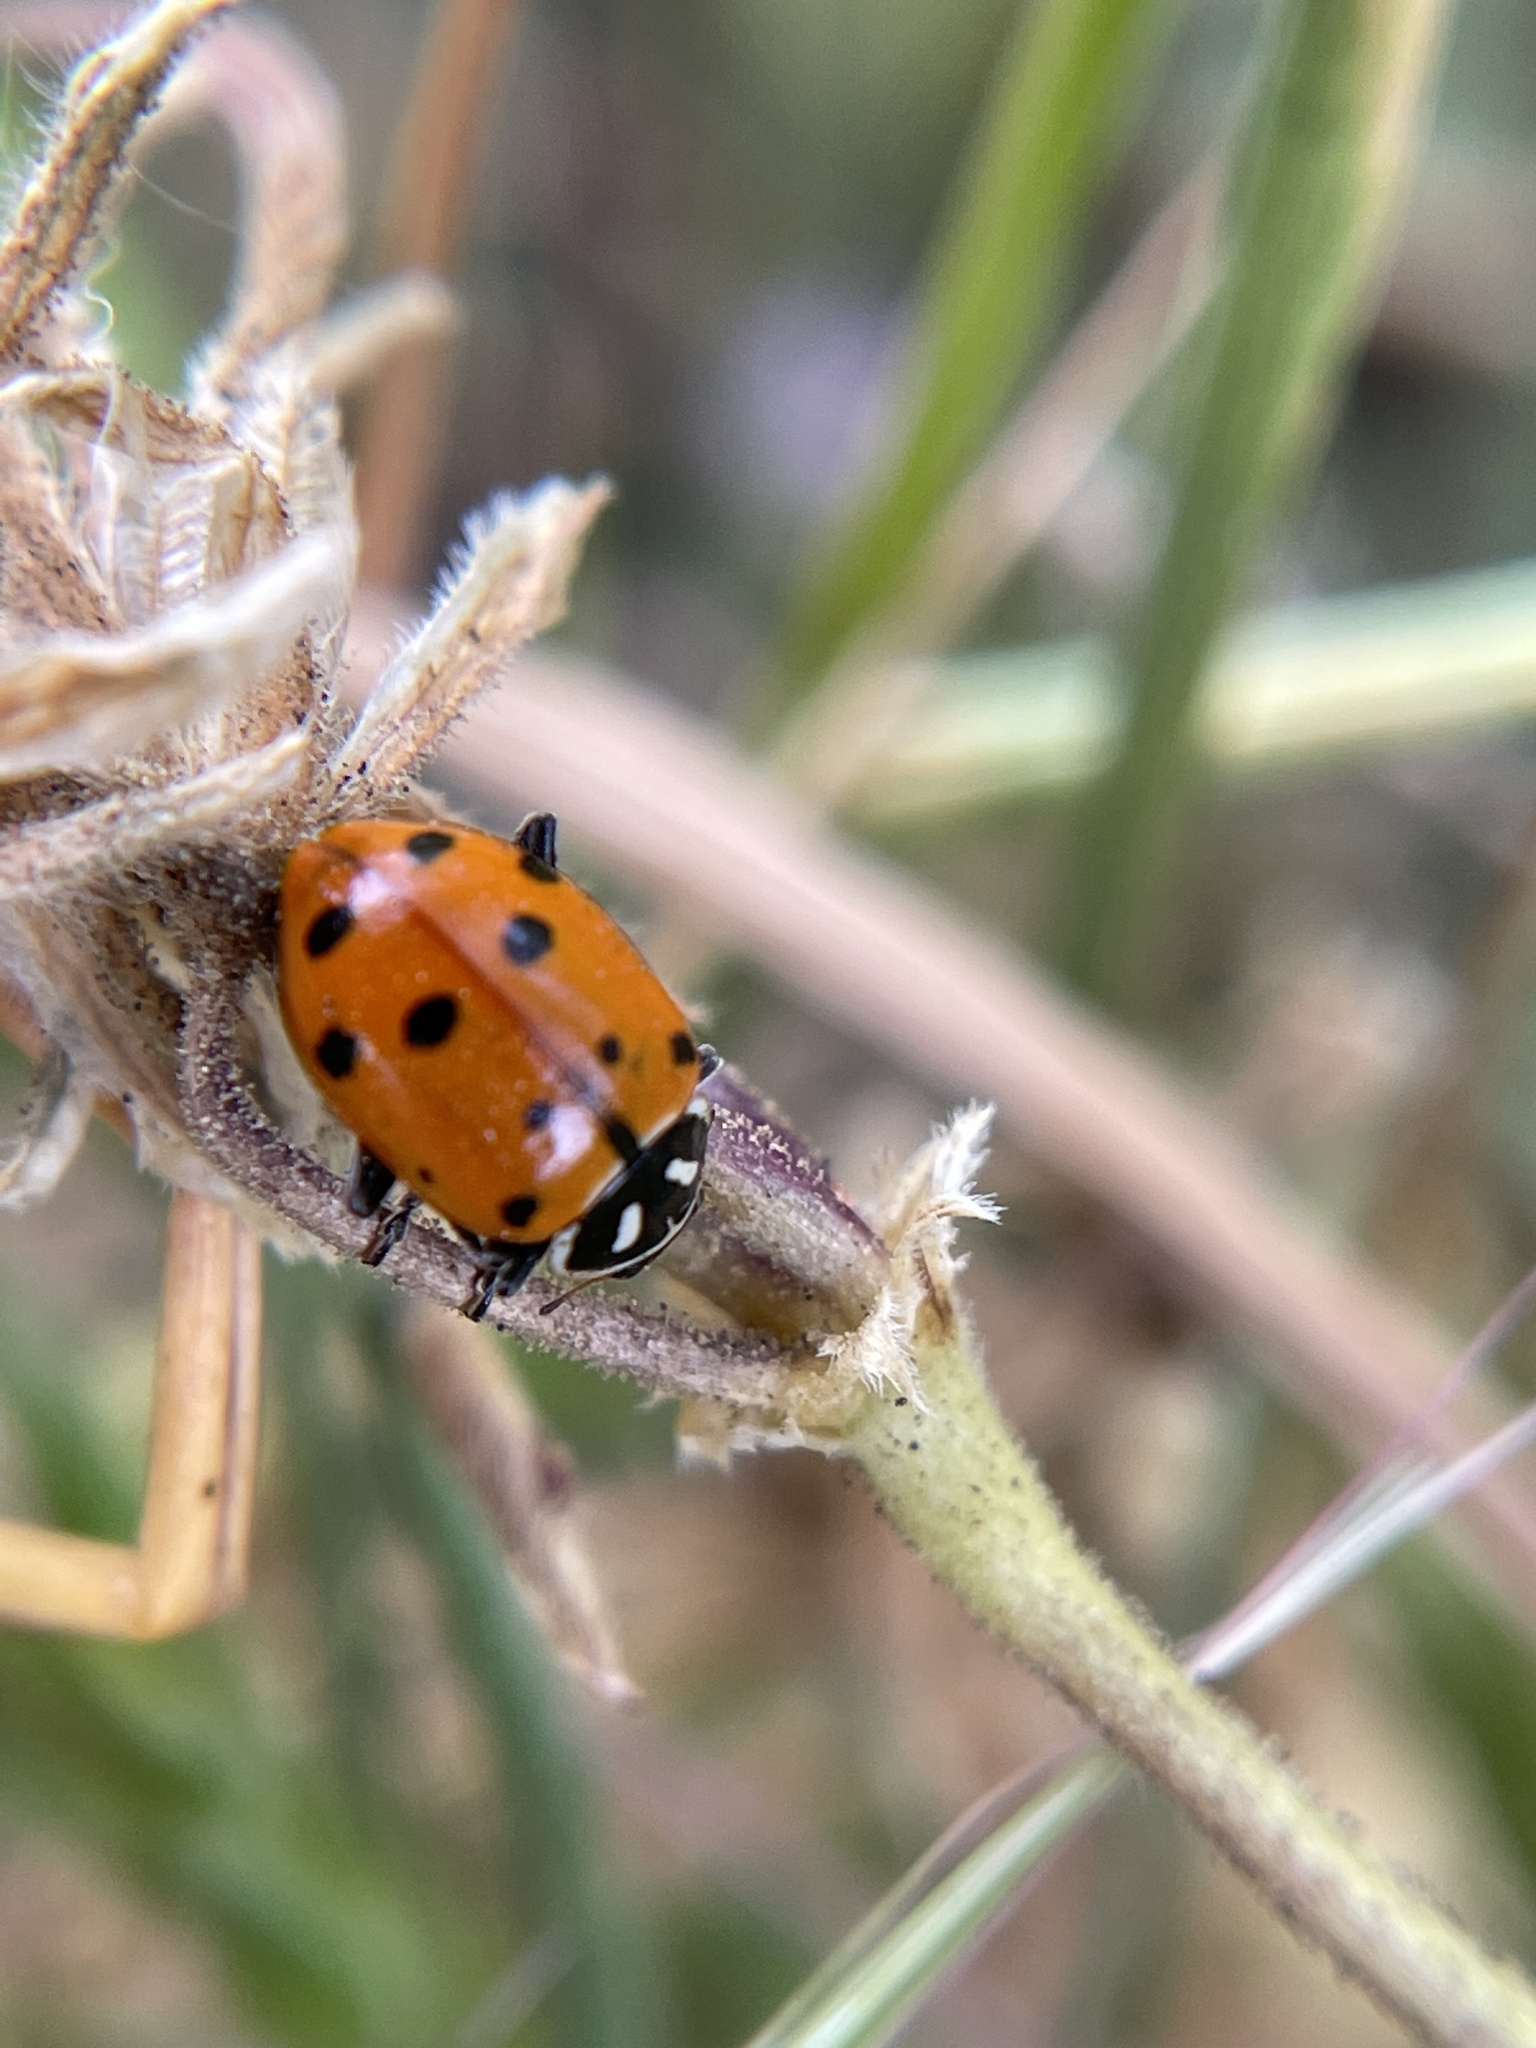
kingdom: Animalia
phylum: Arthropoda
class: Insecta
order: Coleoptera
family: Coccinellidae
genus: Hippodamia
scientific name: Hippodamia convergens
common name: Convergent lady beetle
